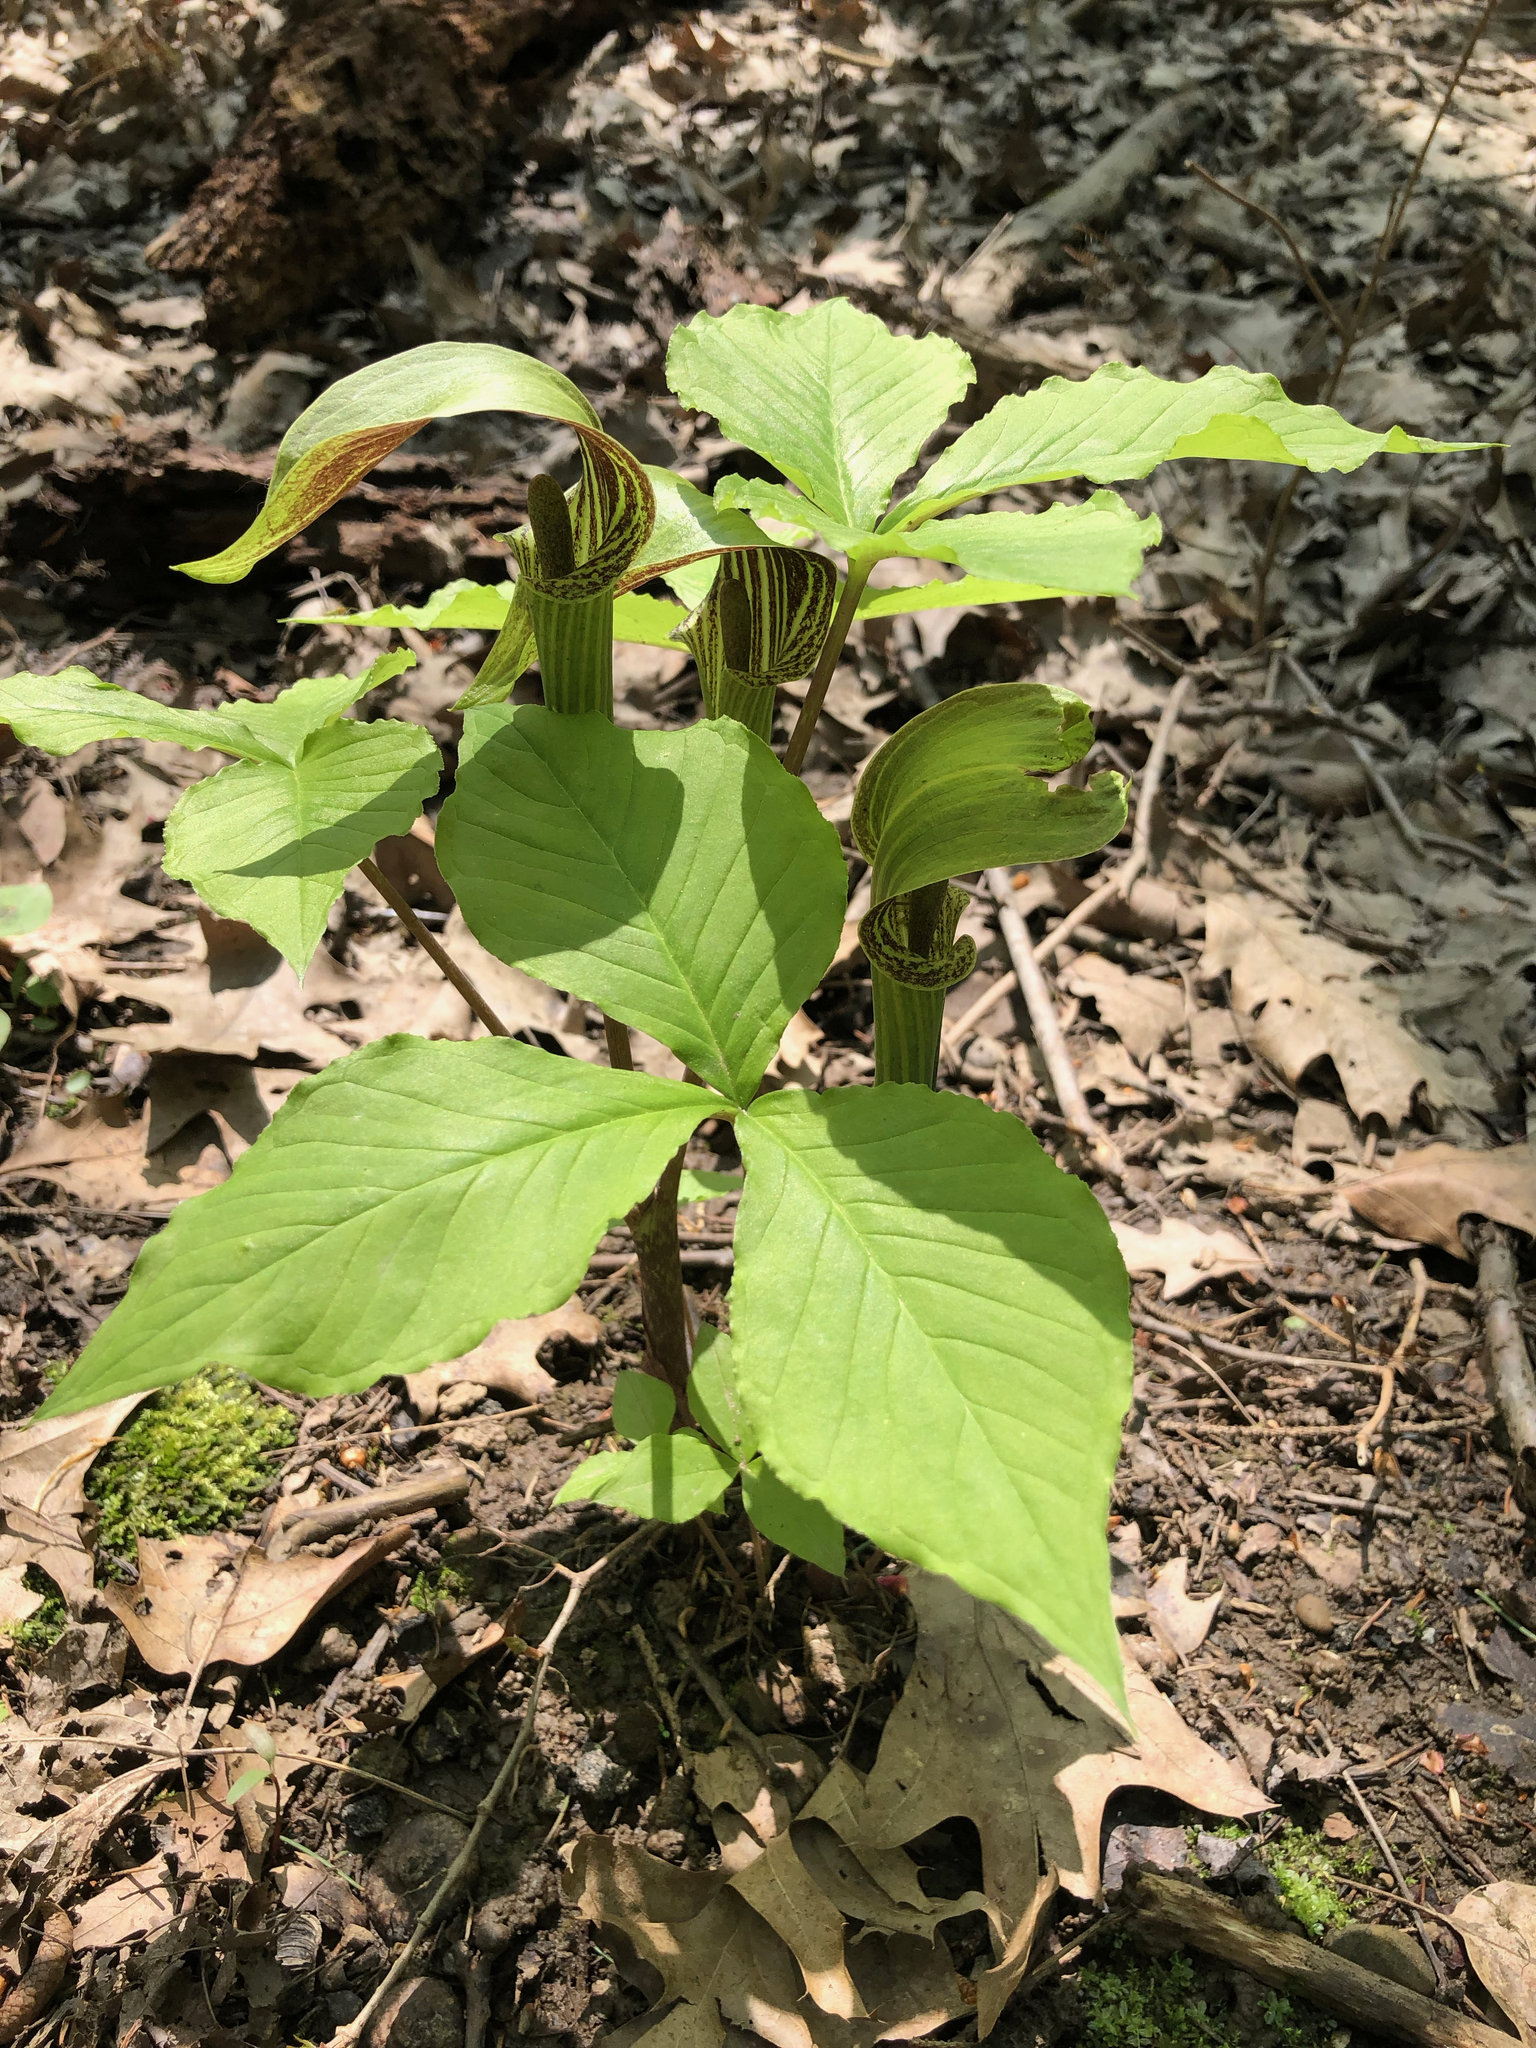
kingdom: Plantae
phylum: Tracheophyta
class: Liliopsida
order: Alismatales
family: Araceae
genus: Arisaema
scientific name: Arisaema triphyllum
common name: Jack-in-the-pulpit
